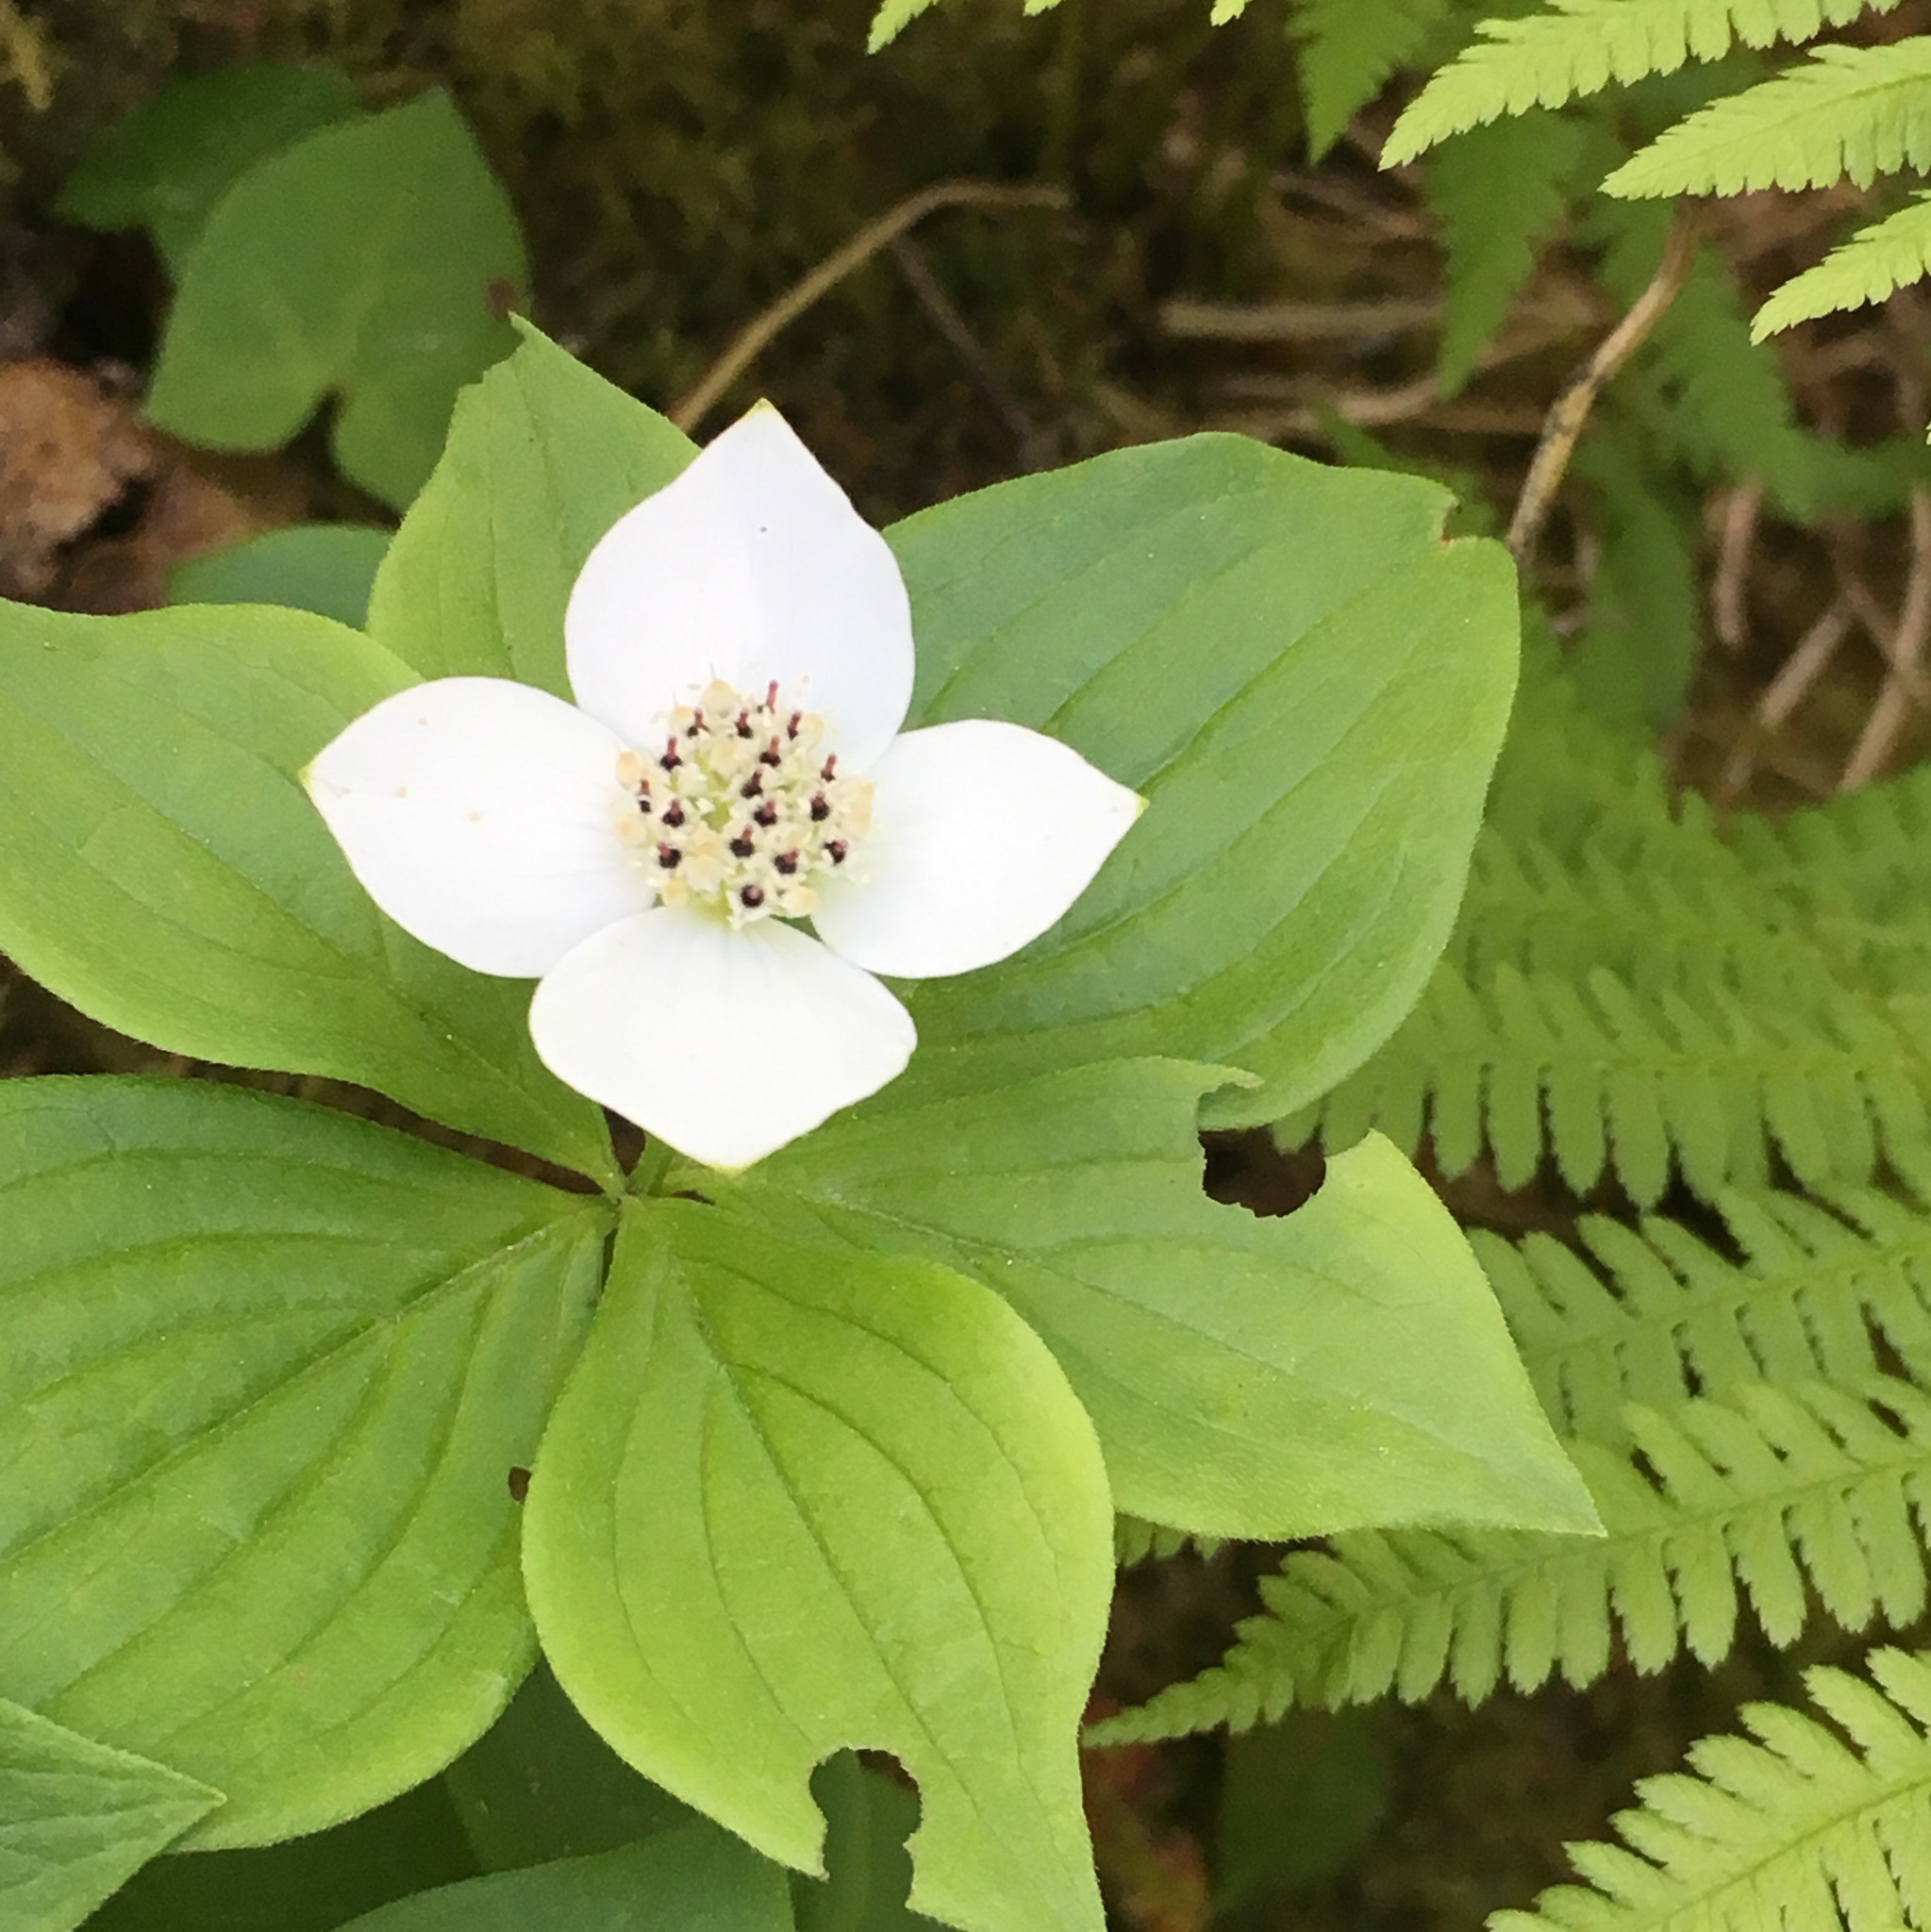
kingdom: Plantae
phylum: Tracheophyta
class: Magnoliopsida
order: Cornales
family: Cornaceae
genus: Cornus
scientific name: Cornus canadensis
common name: Creeping dogwood
